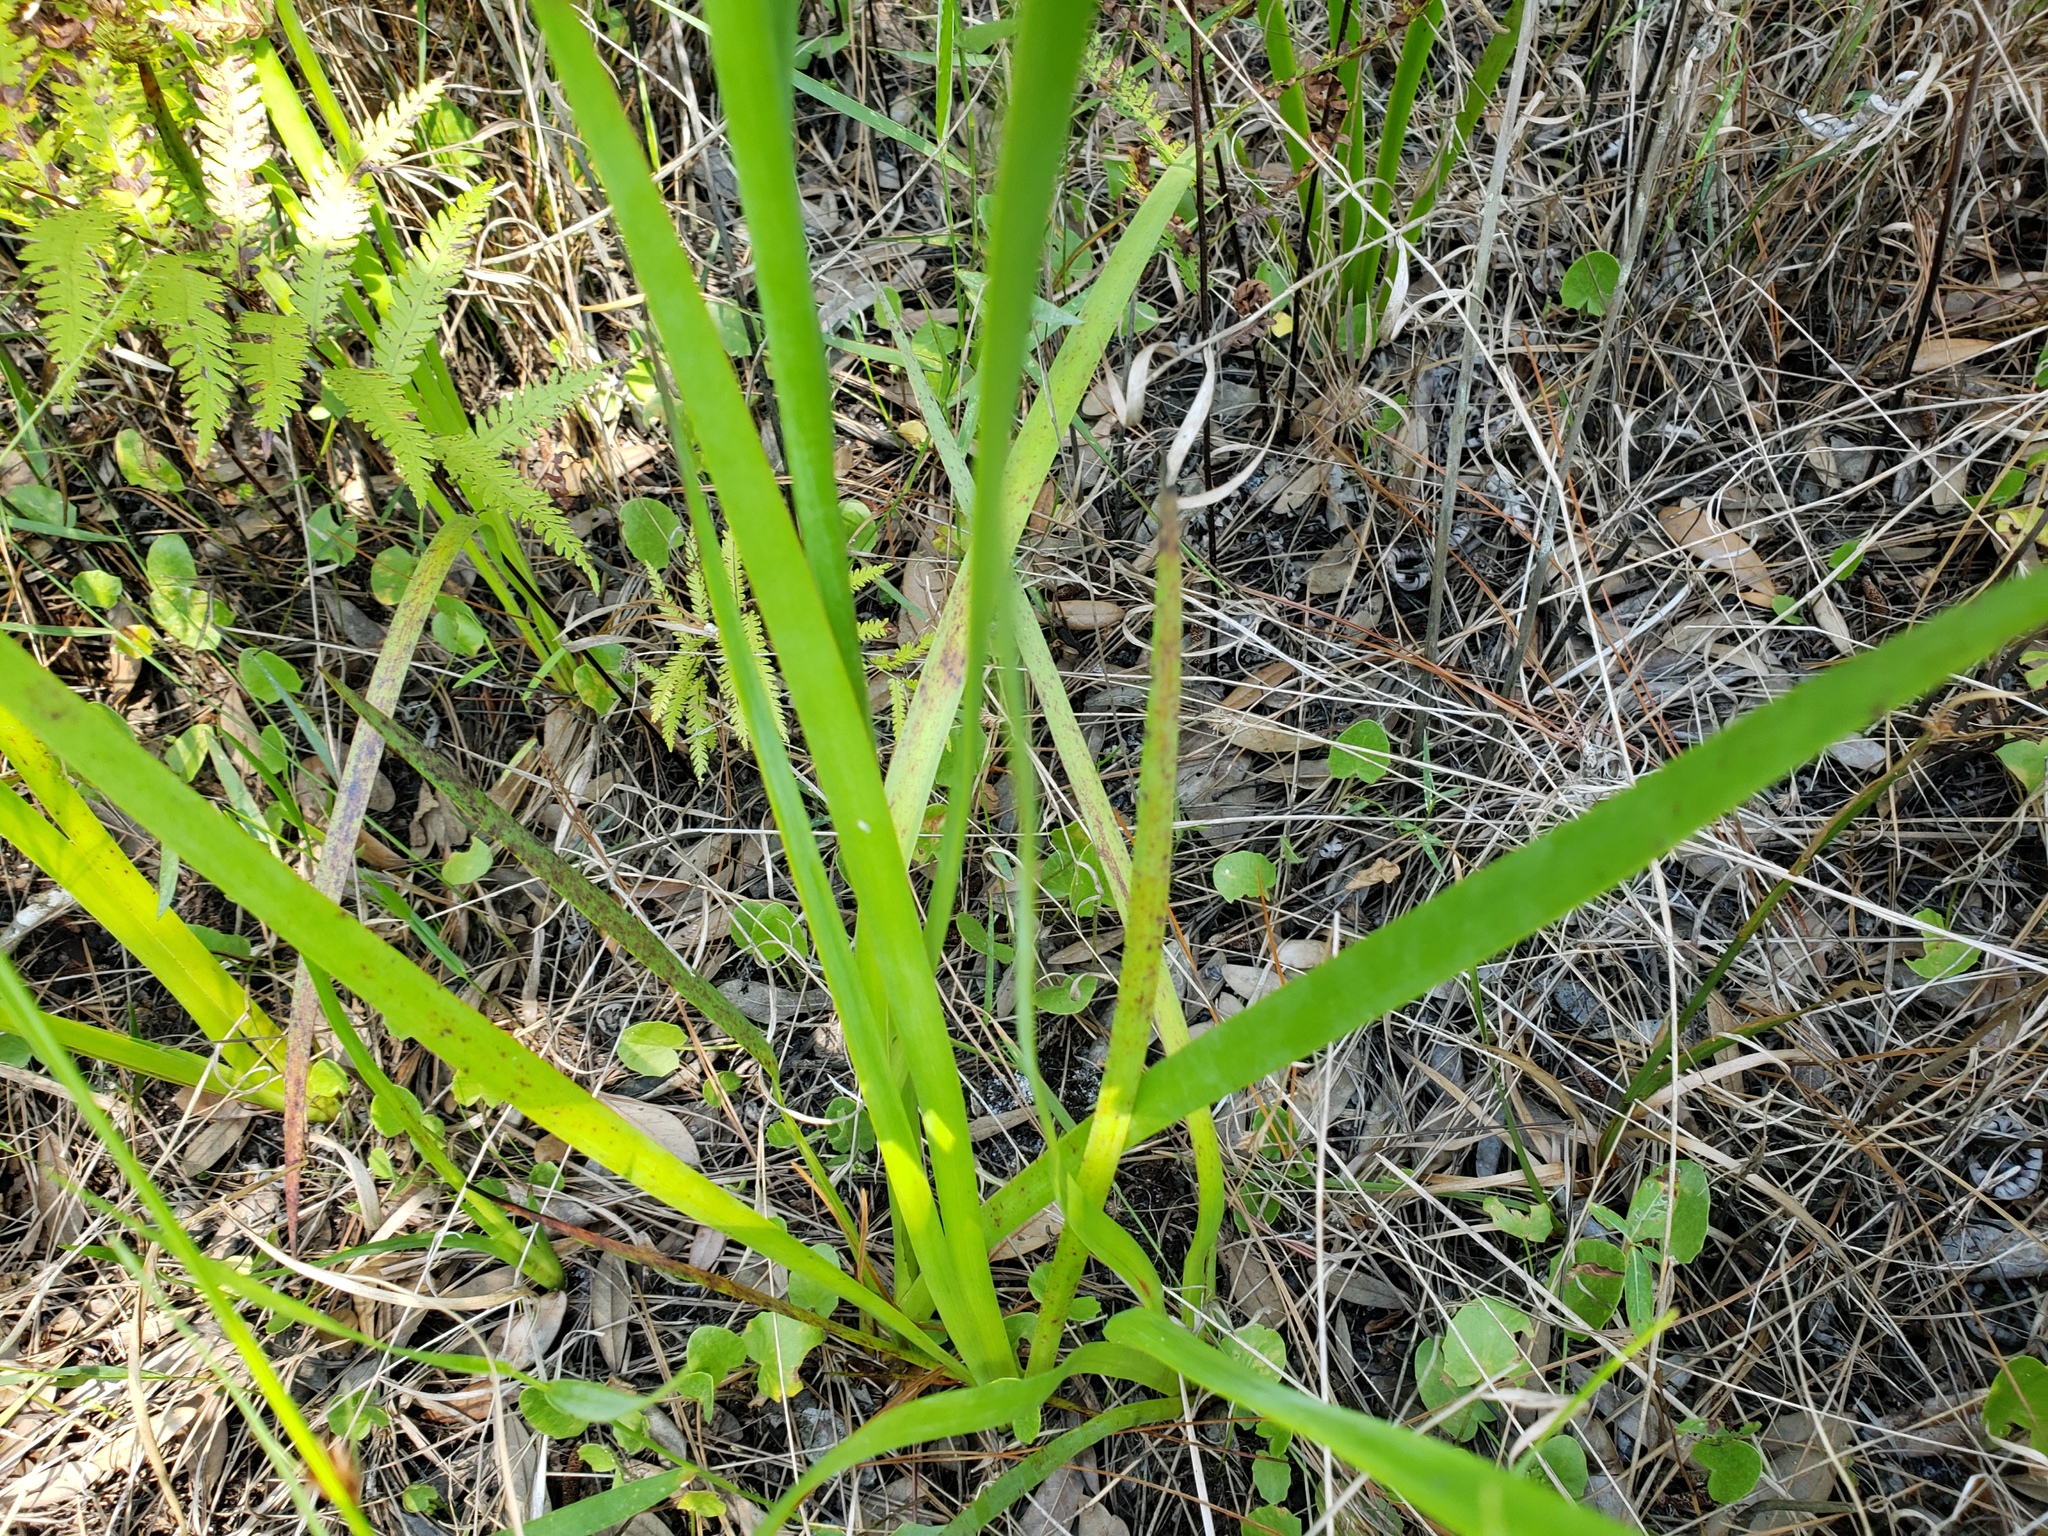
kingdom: Plantae
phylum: Tracheophyta
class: Liliopsida
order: Commelinales
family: Haemodoraceae
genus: Lachnanthes
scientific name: Lachnanthes caroliana
